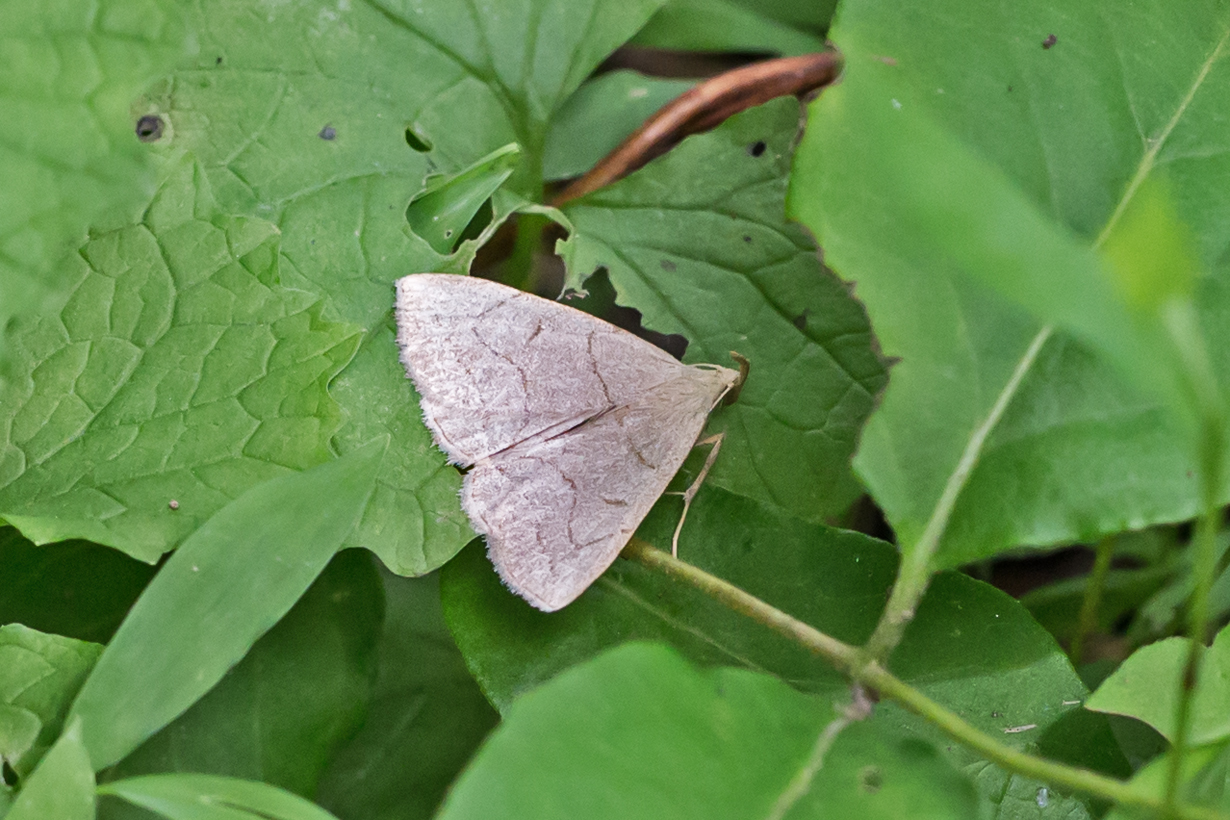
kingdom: Animalia
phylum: Arthropoda
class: Insecta
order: Lepidoptera
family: Erebidae
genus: Zanclognatha
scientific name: Zanclognatha pedipilalis
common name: Grayish fan-foot
